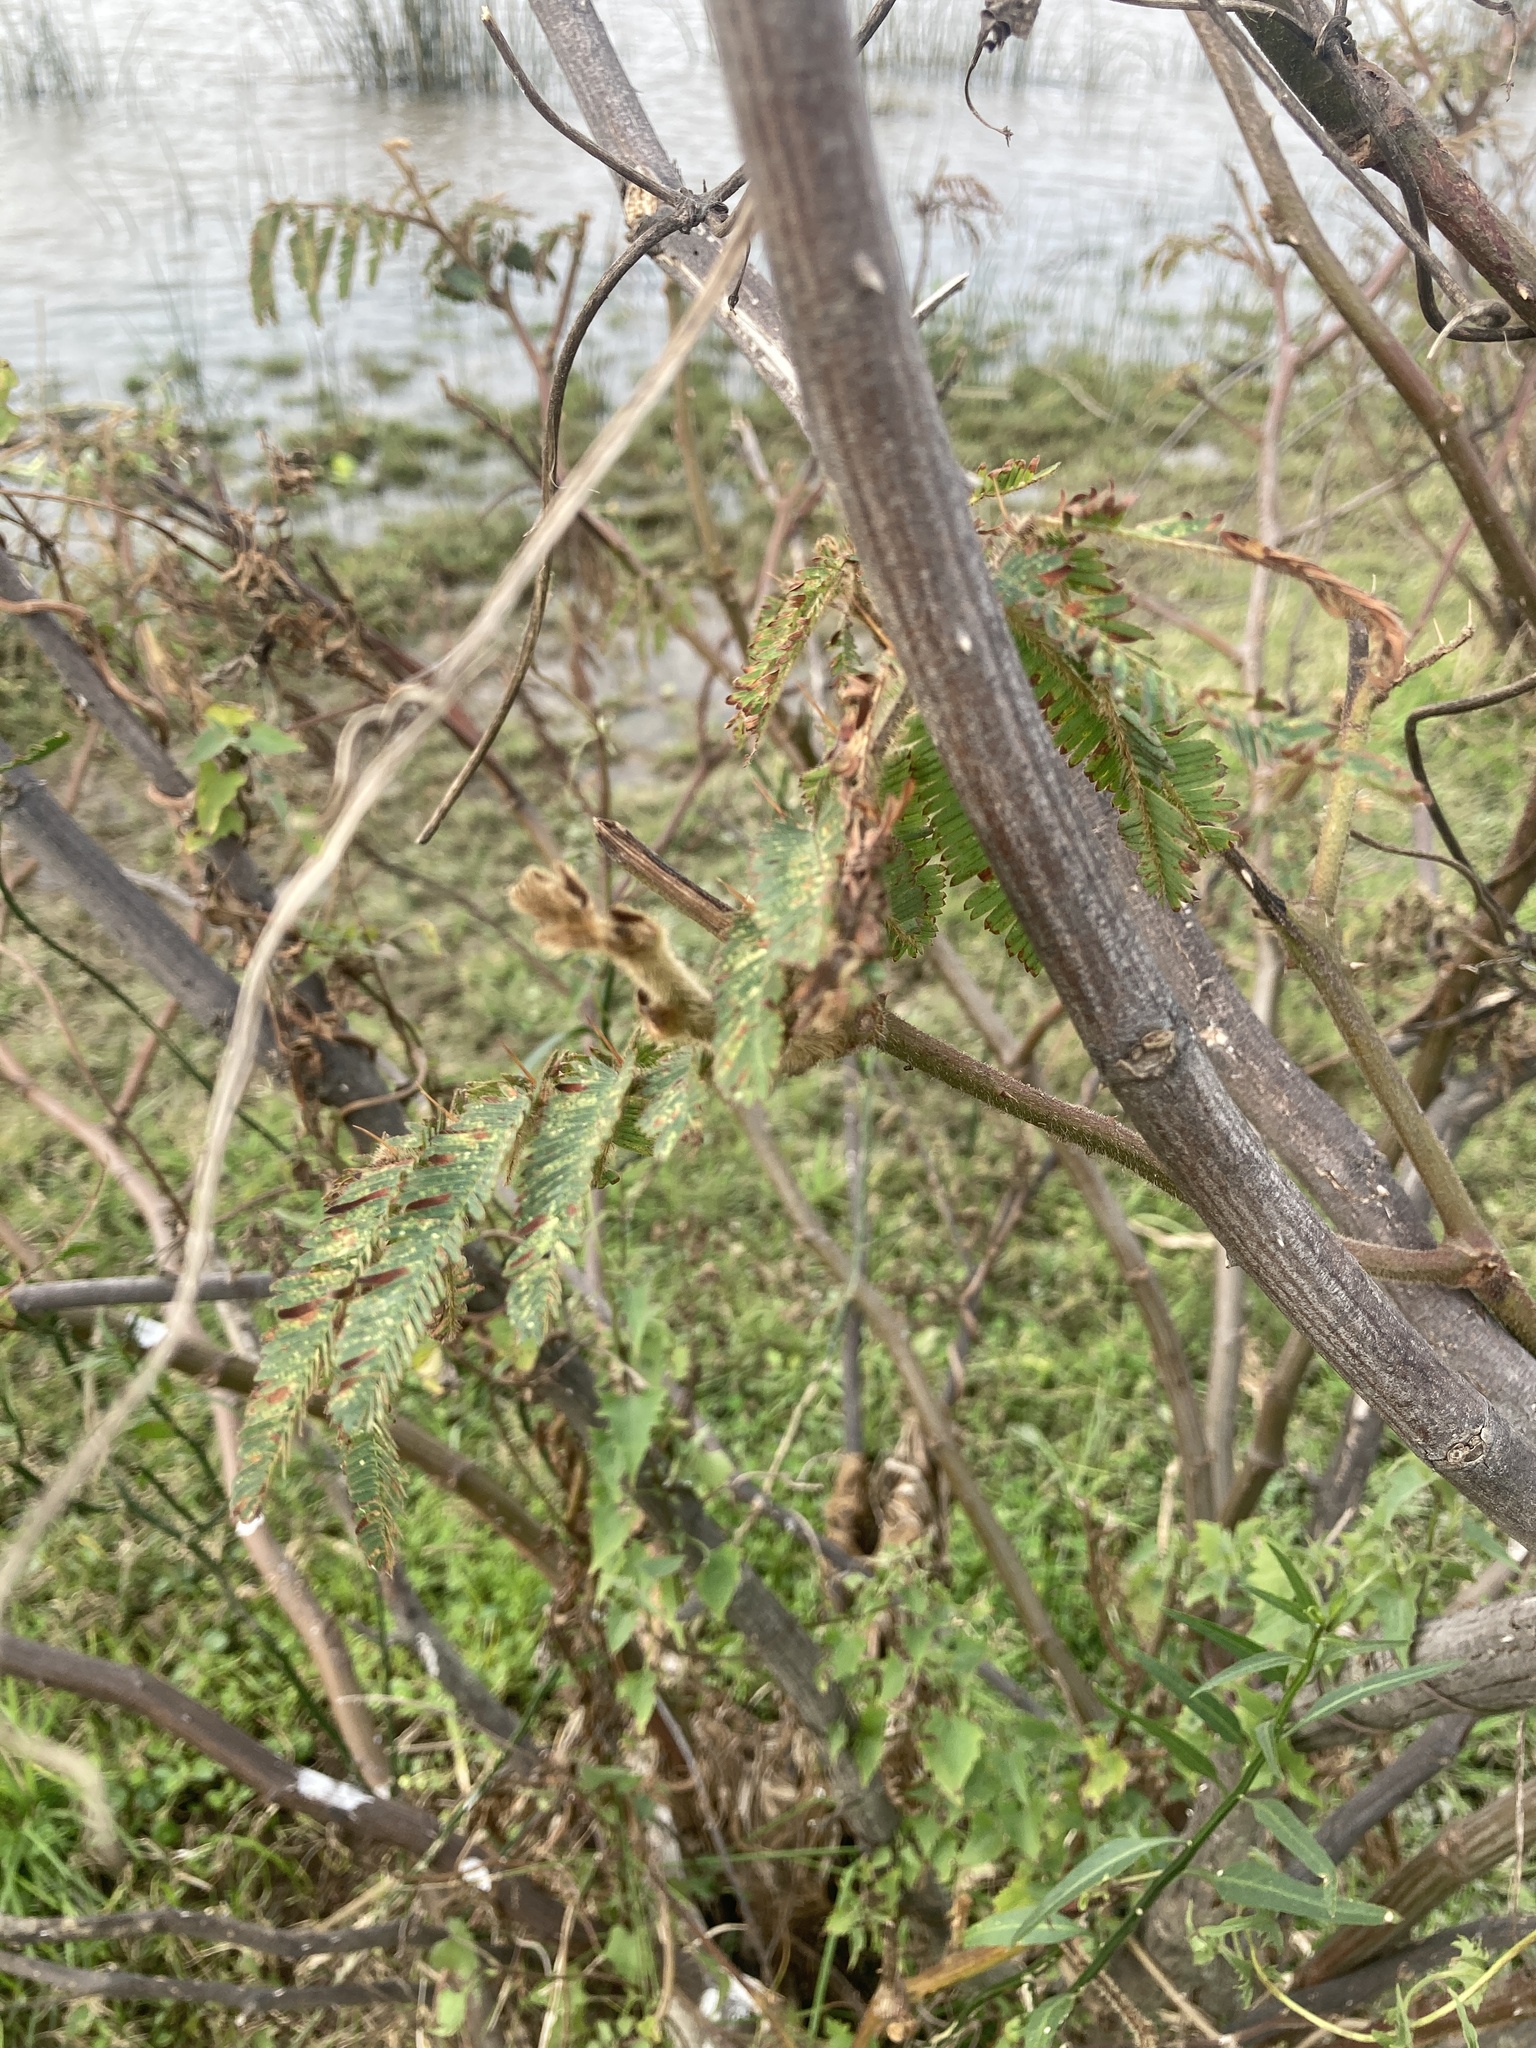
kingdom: Plantae
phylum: Tracheophyta
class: Magnoliopsida
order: Fabales
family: Fabaceae
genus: Mimosa
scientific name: Mimosa pigra
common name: Black mimosa
